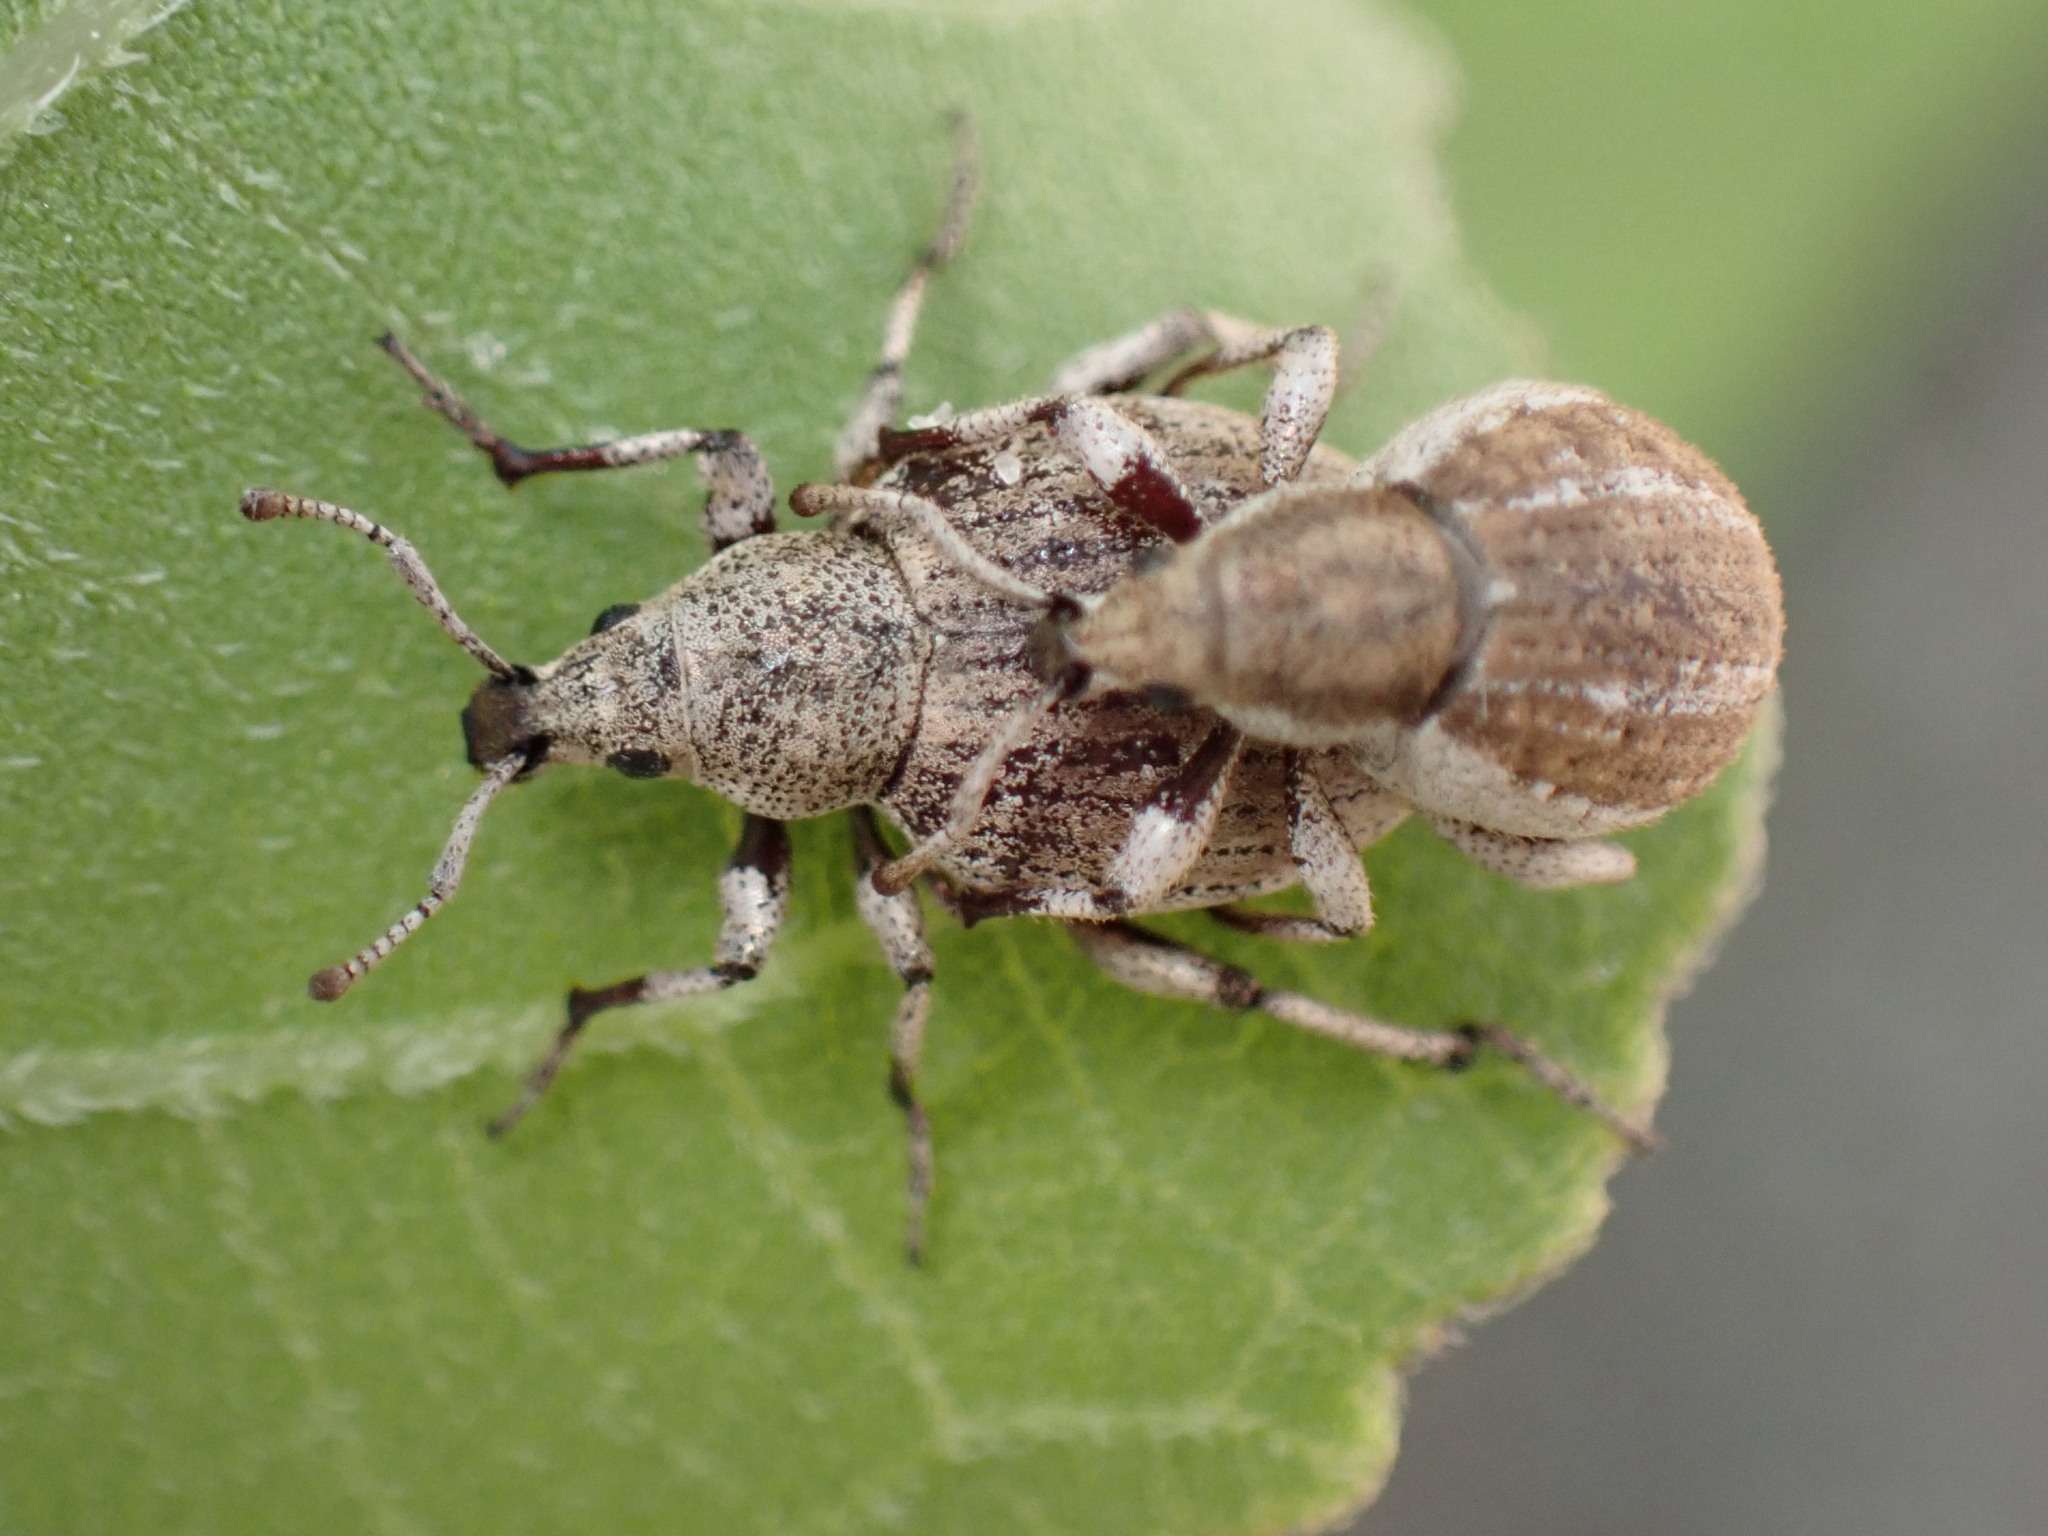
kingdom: Animalia
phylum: Arthropoda
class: Insecta
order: Coleoptera
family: Curculionidae
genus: Agraphus
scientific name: Agraphus bellicus
